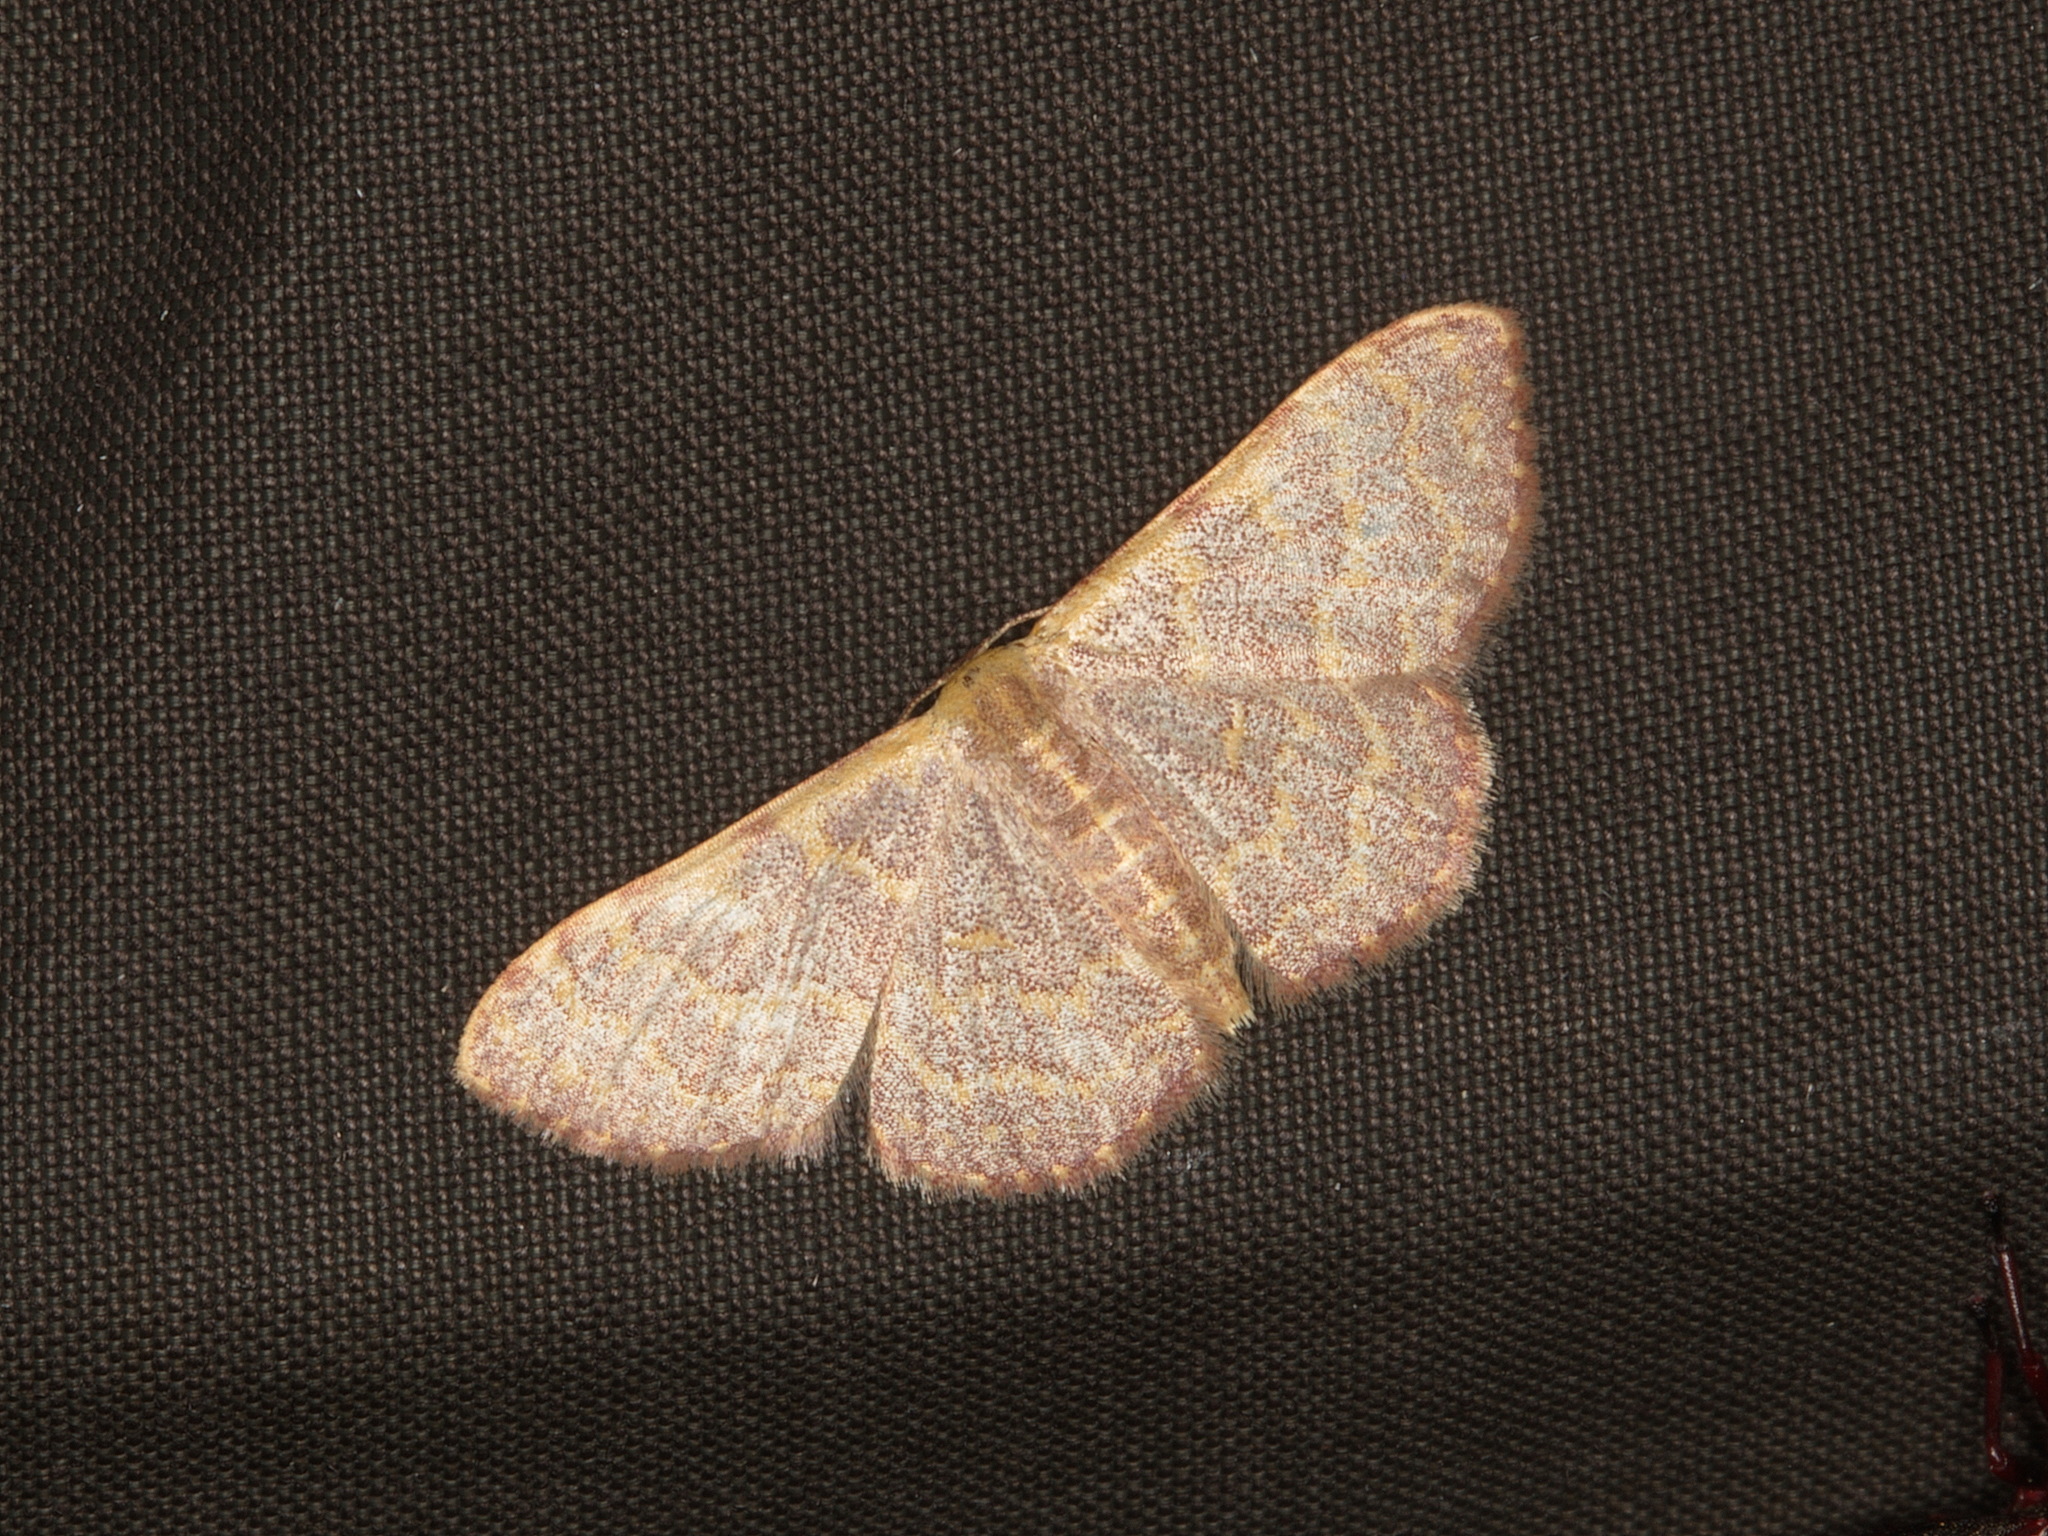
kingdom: Animalia
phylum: Arthropoda
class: Insecta
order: Lepidoptera
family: Geometridae
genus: Leptostales
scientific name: Leptostales pannaria
